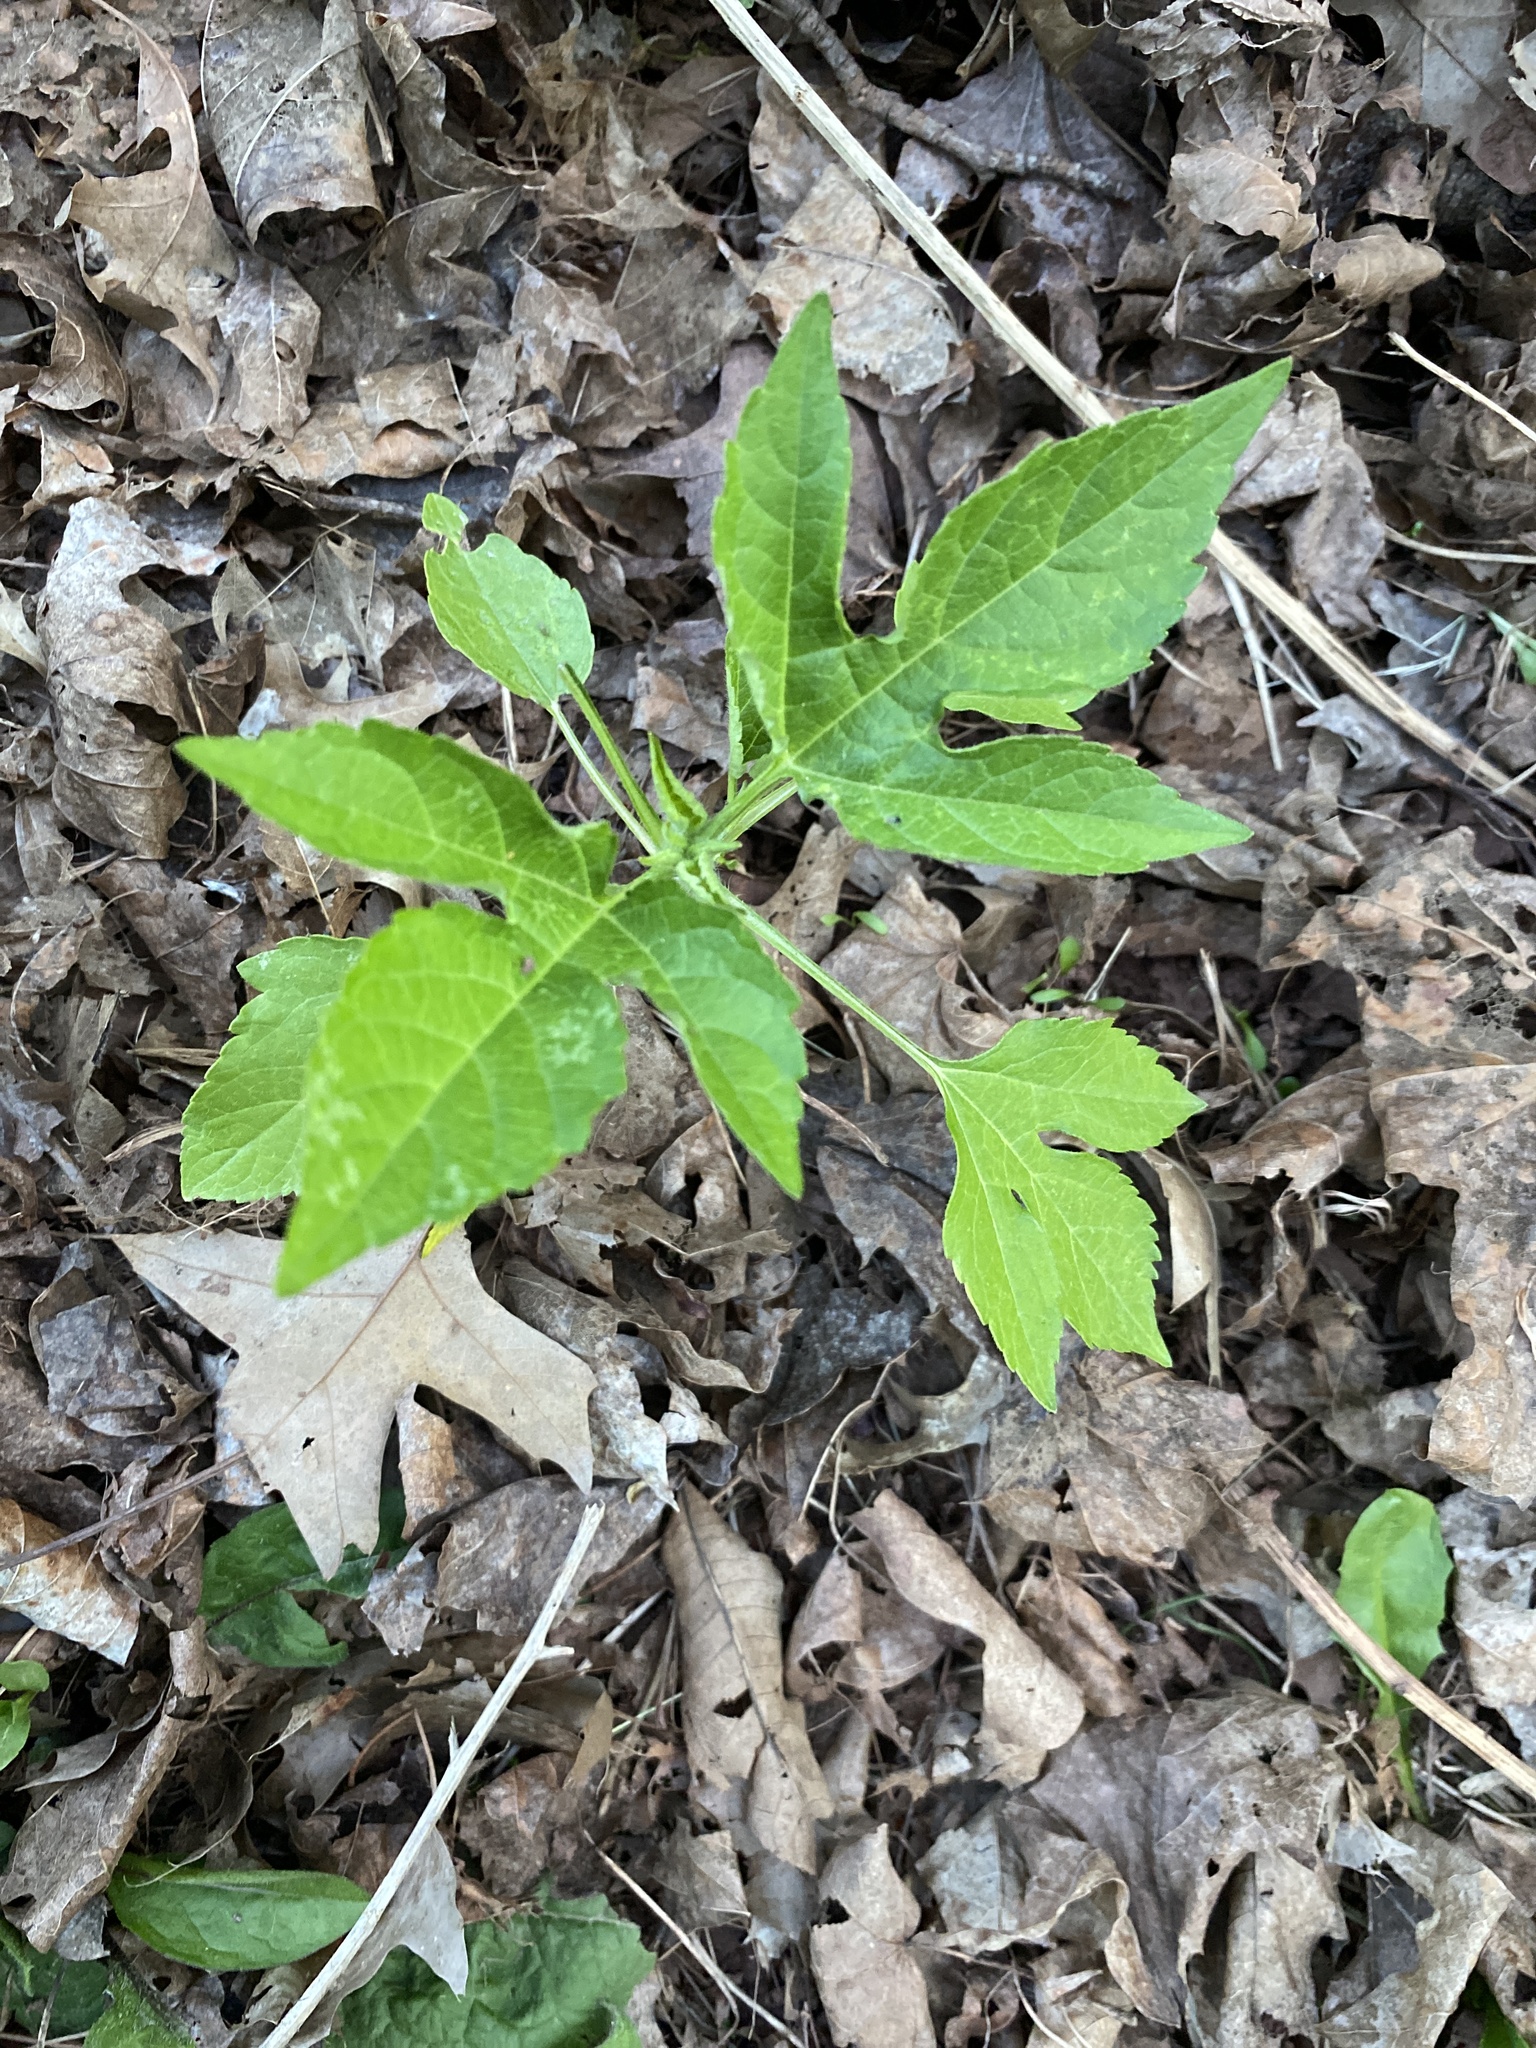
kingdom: Plantae
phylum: Tracheophyta
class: Magnoliopsida
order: Asterales
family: Asteraceae
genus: Ambrosia
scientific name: Ambrosia trifida
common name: Giant ragweed
